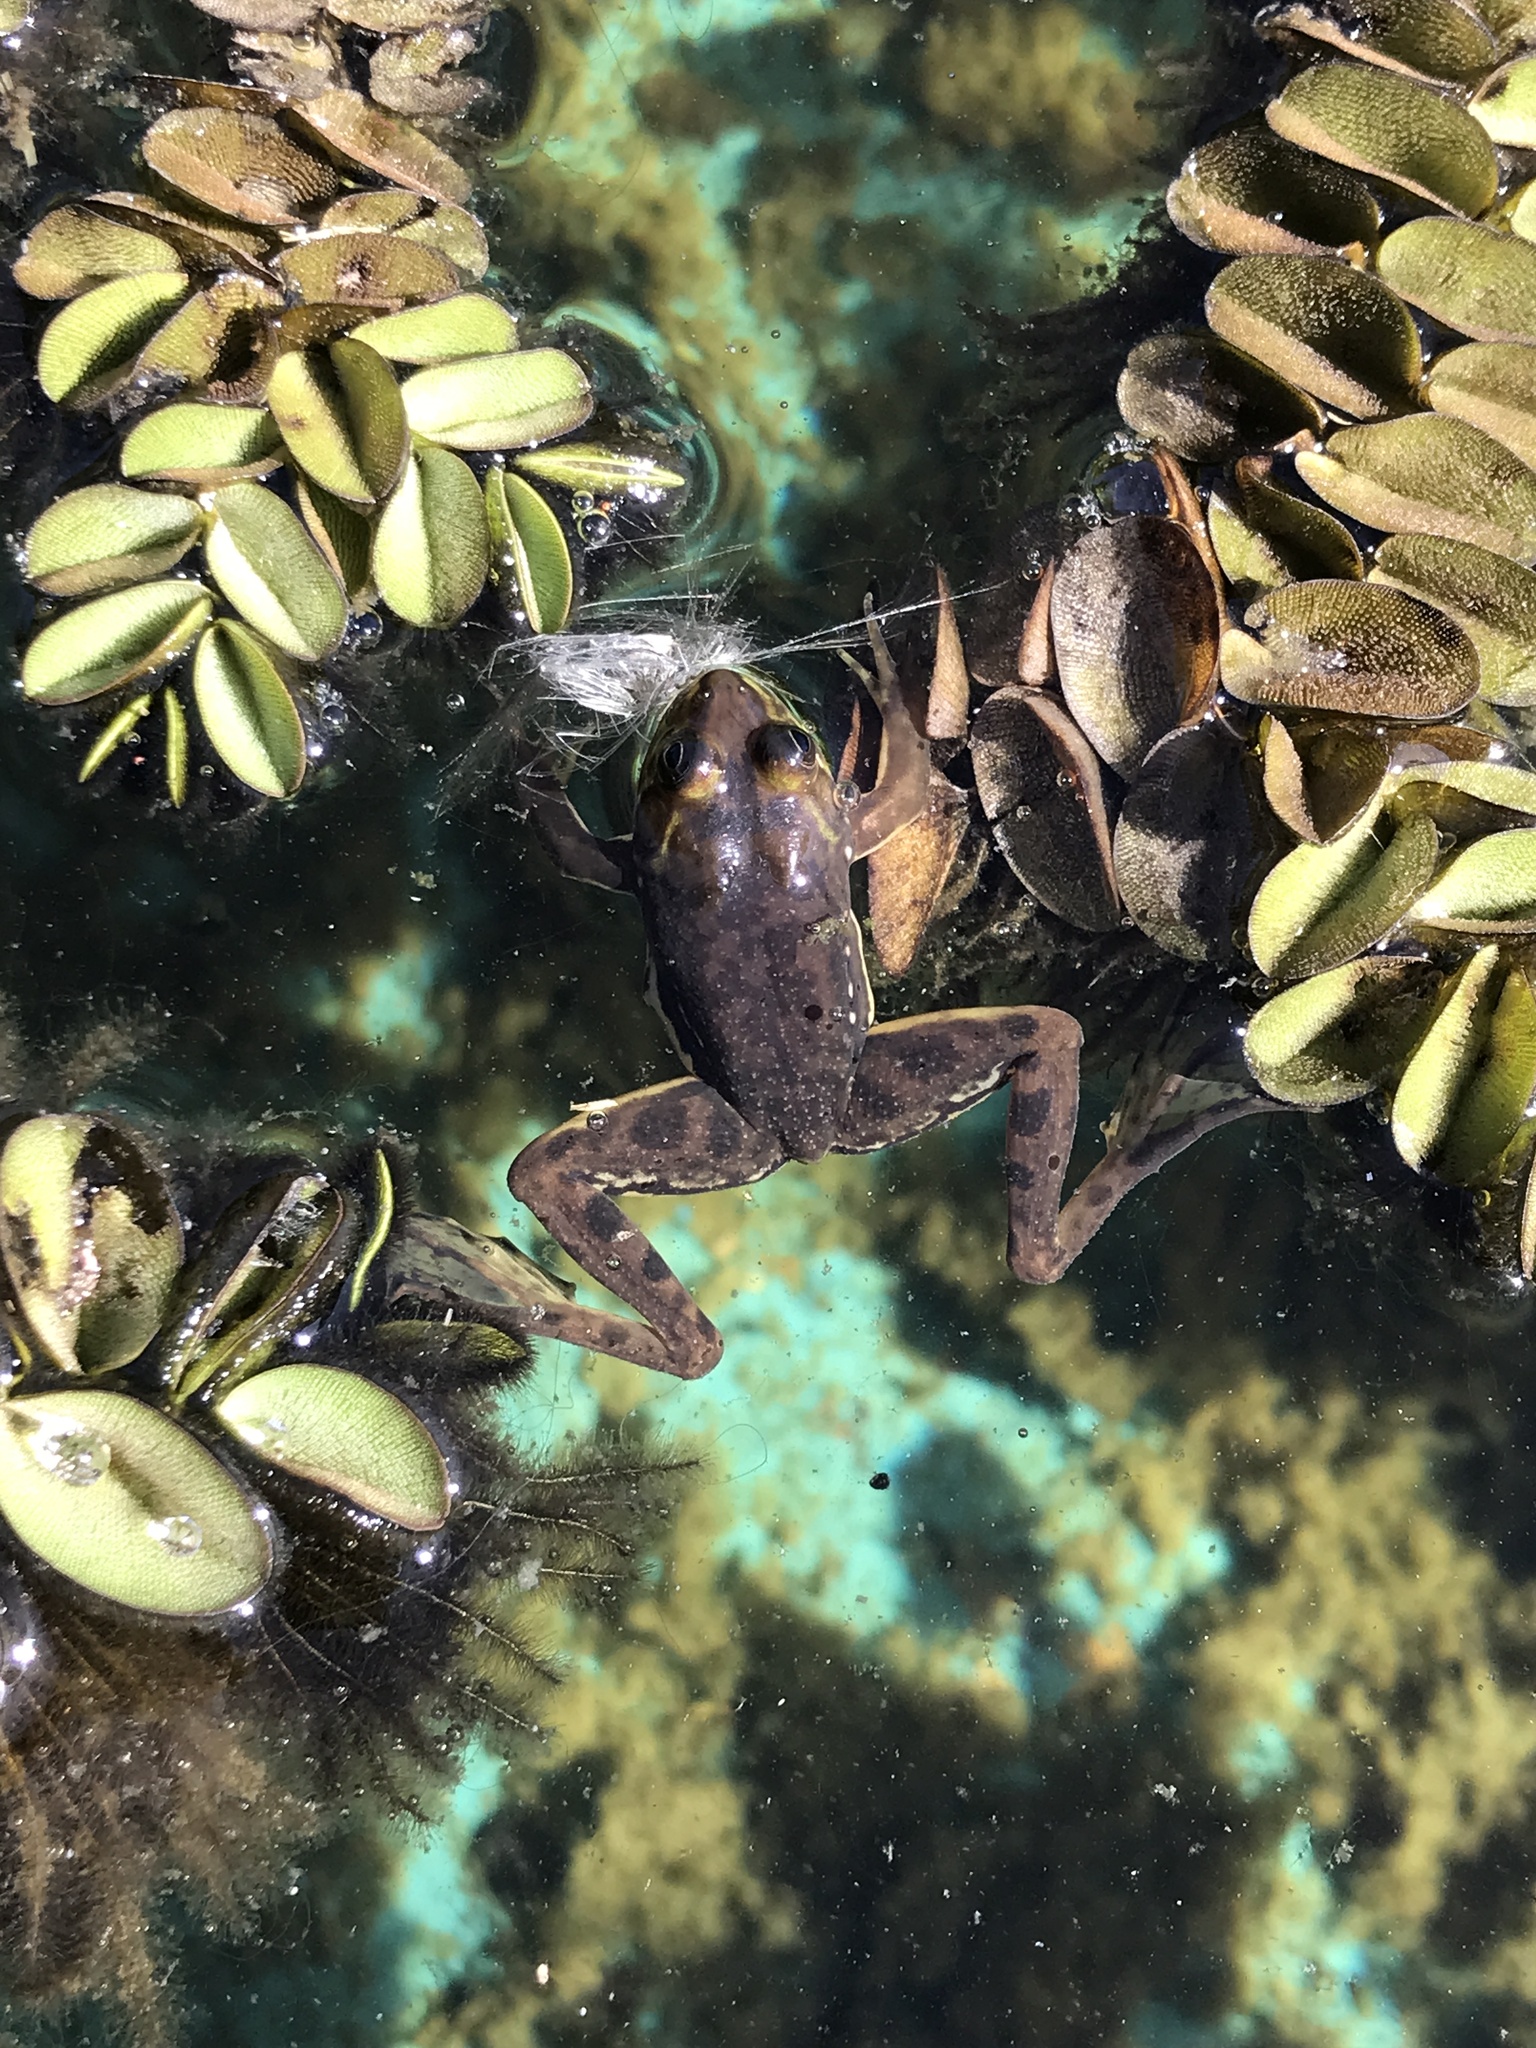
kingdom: Animalia
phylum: Chordata
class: Amphibia
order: Anura
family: Hylidae
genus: Pseudis
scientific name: Pseudis minuta
